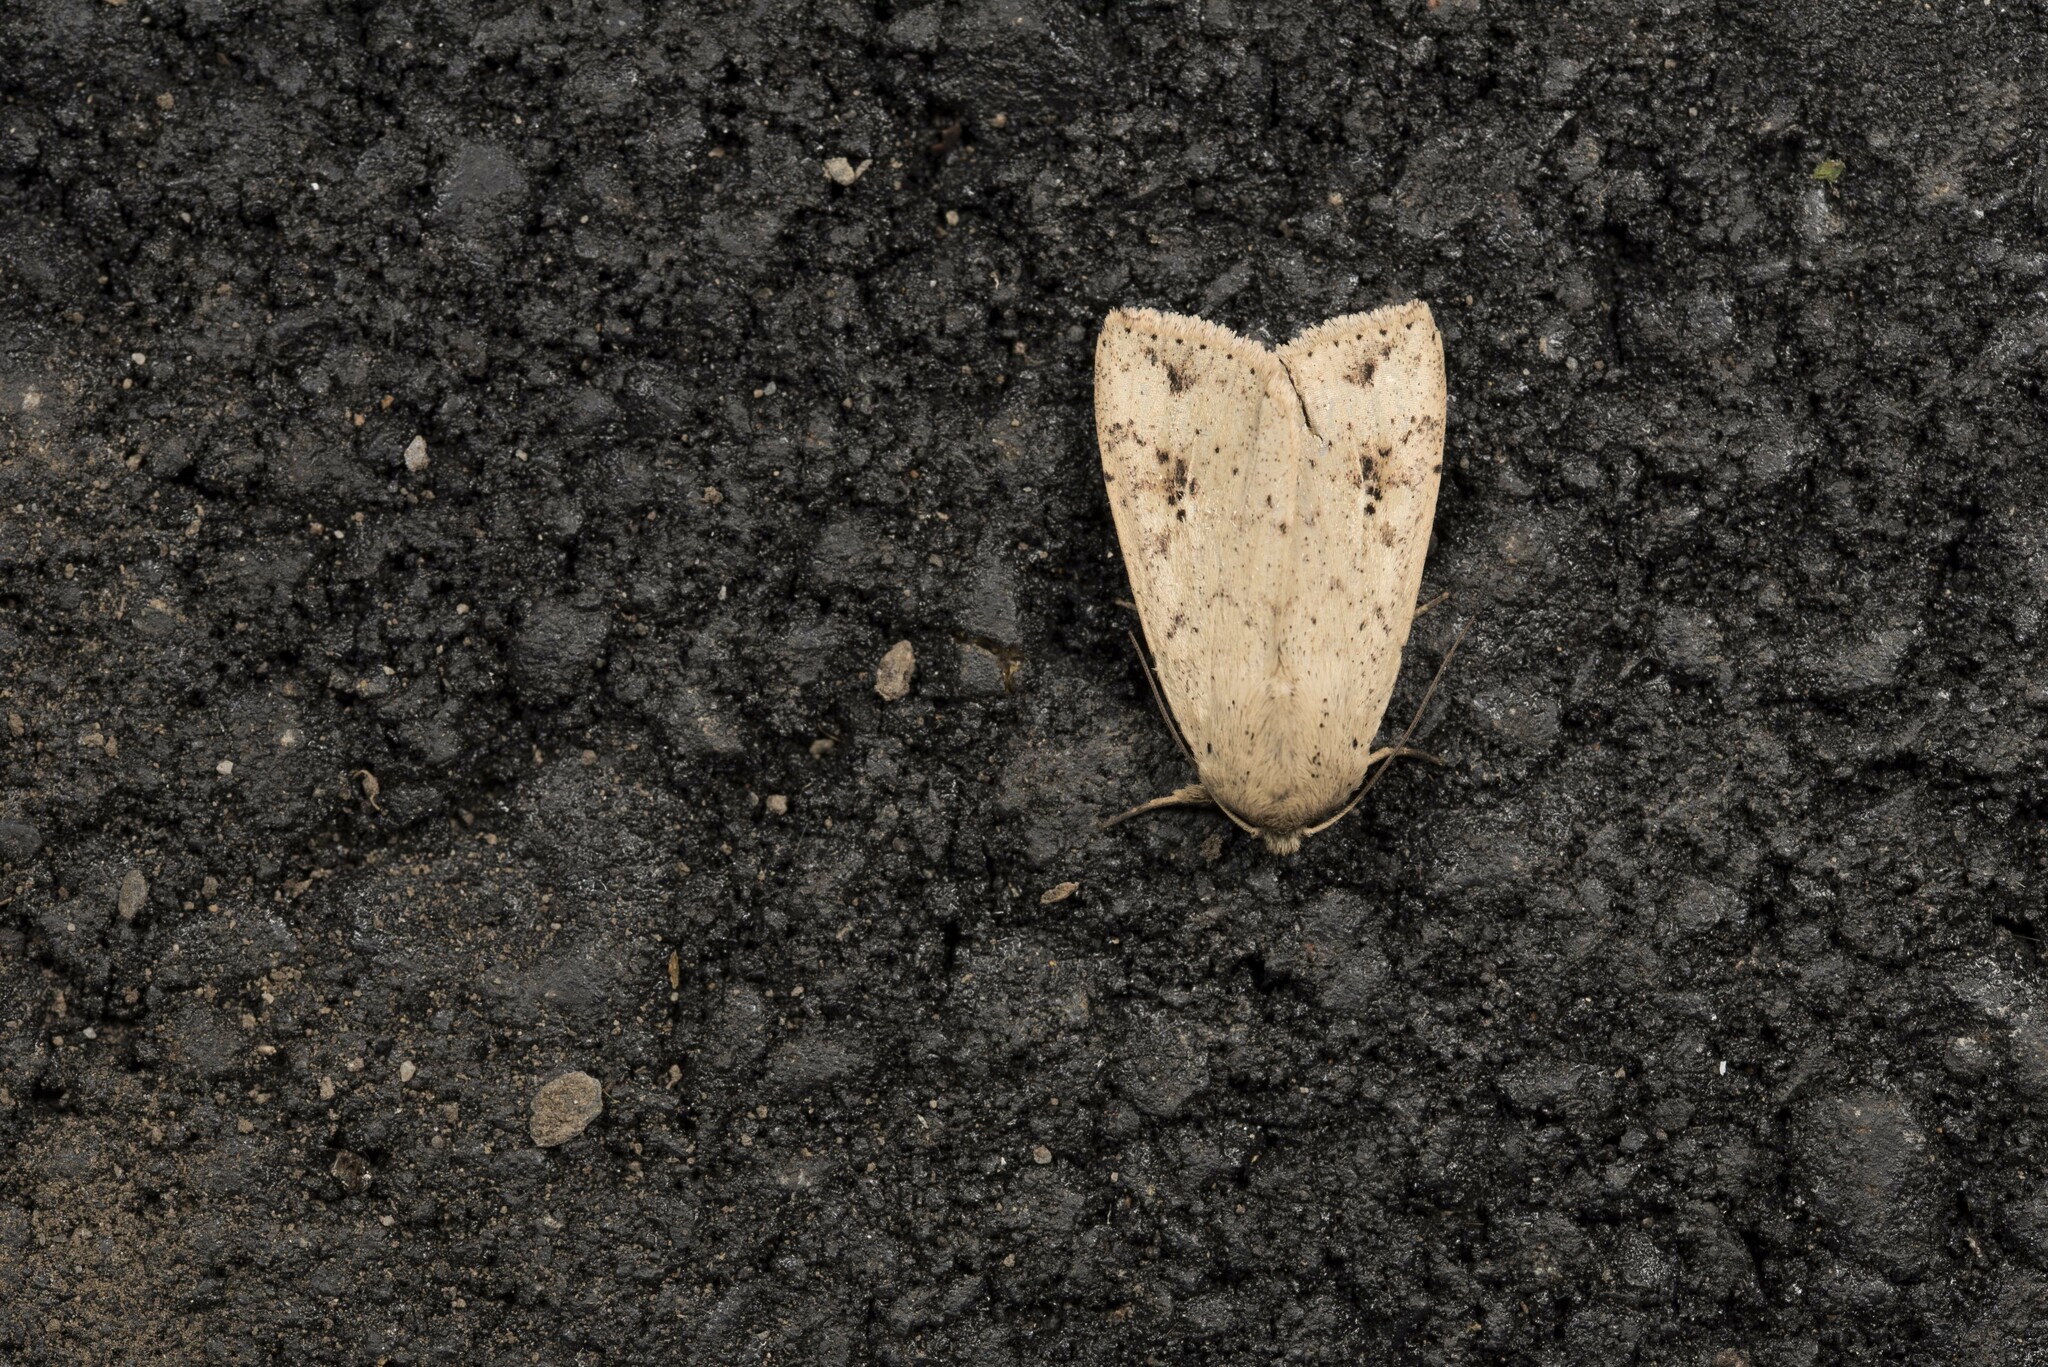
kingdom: Animalia
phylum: Arthropoda
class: Insecta
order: Lepidoptera
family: Noctuidae
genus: Mythimna
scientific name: Mythimna subplacida
